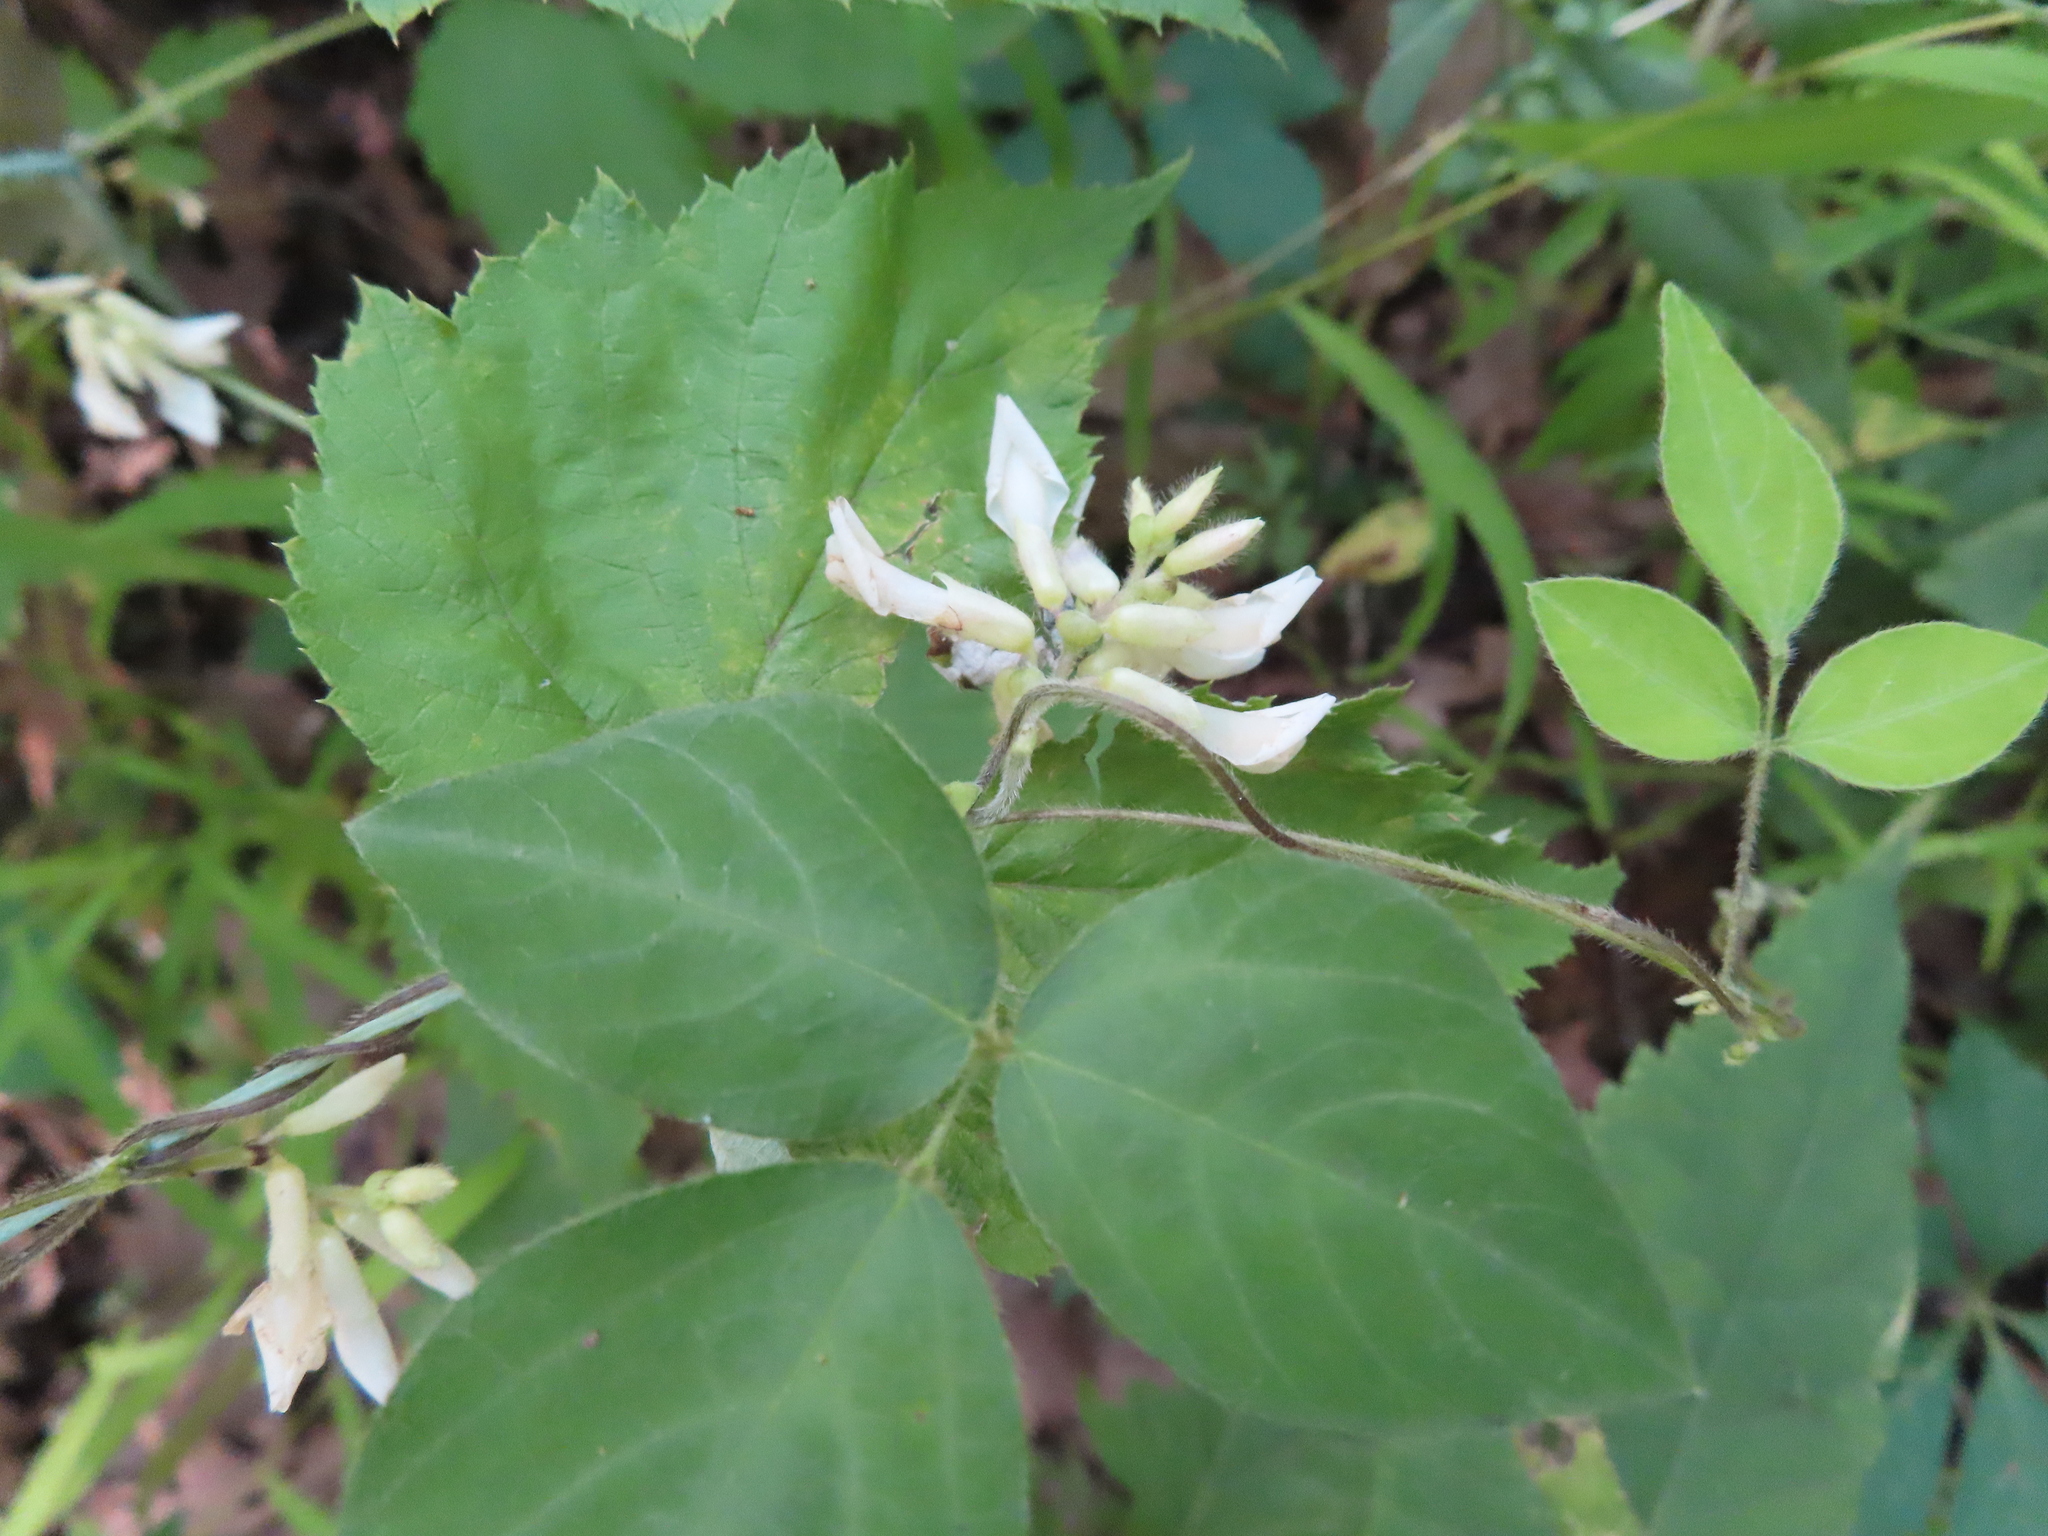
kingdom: Plantae
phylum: Tracheophyta
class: Magnoliopsida
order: Fabales
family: Fabaceae
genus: Amphicarpaea
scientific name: Amphicarpaea bracteata
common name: American hog peanut
